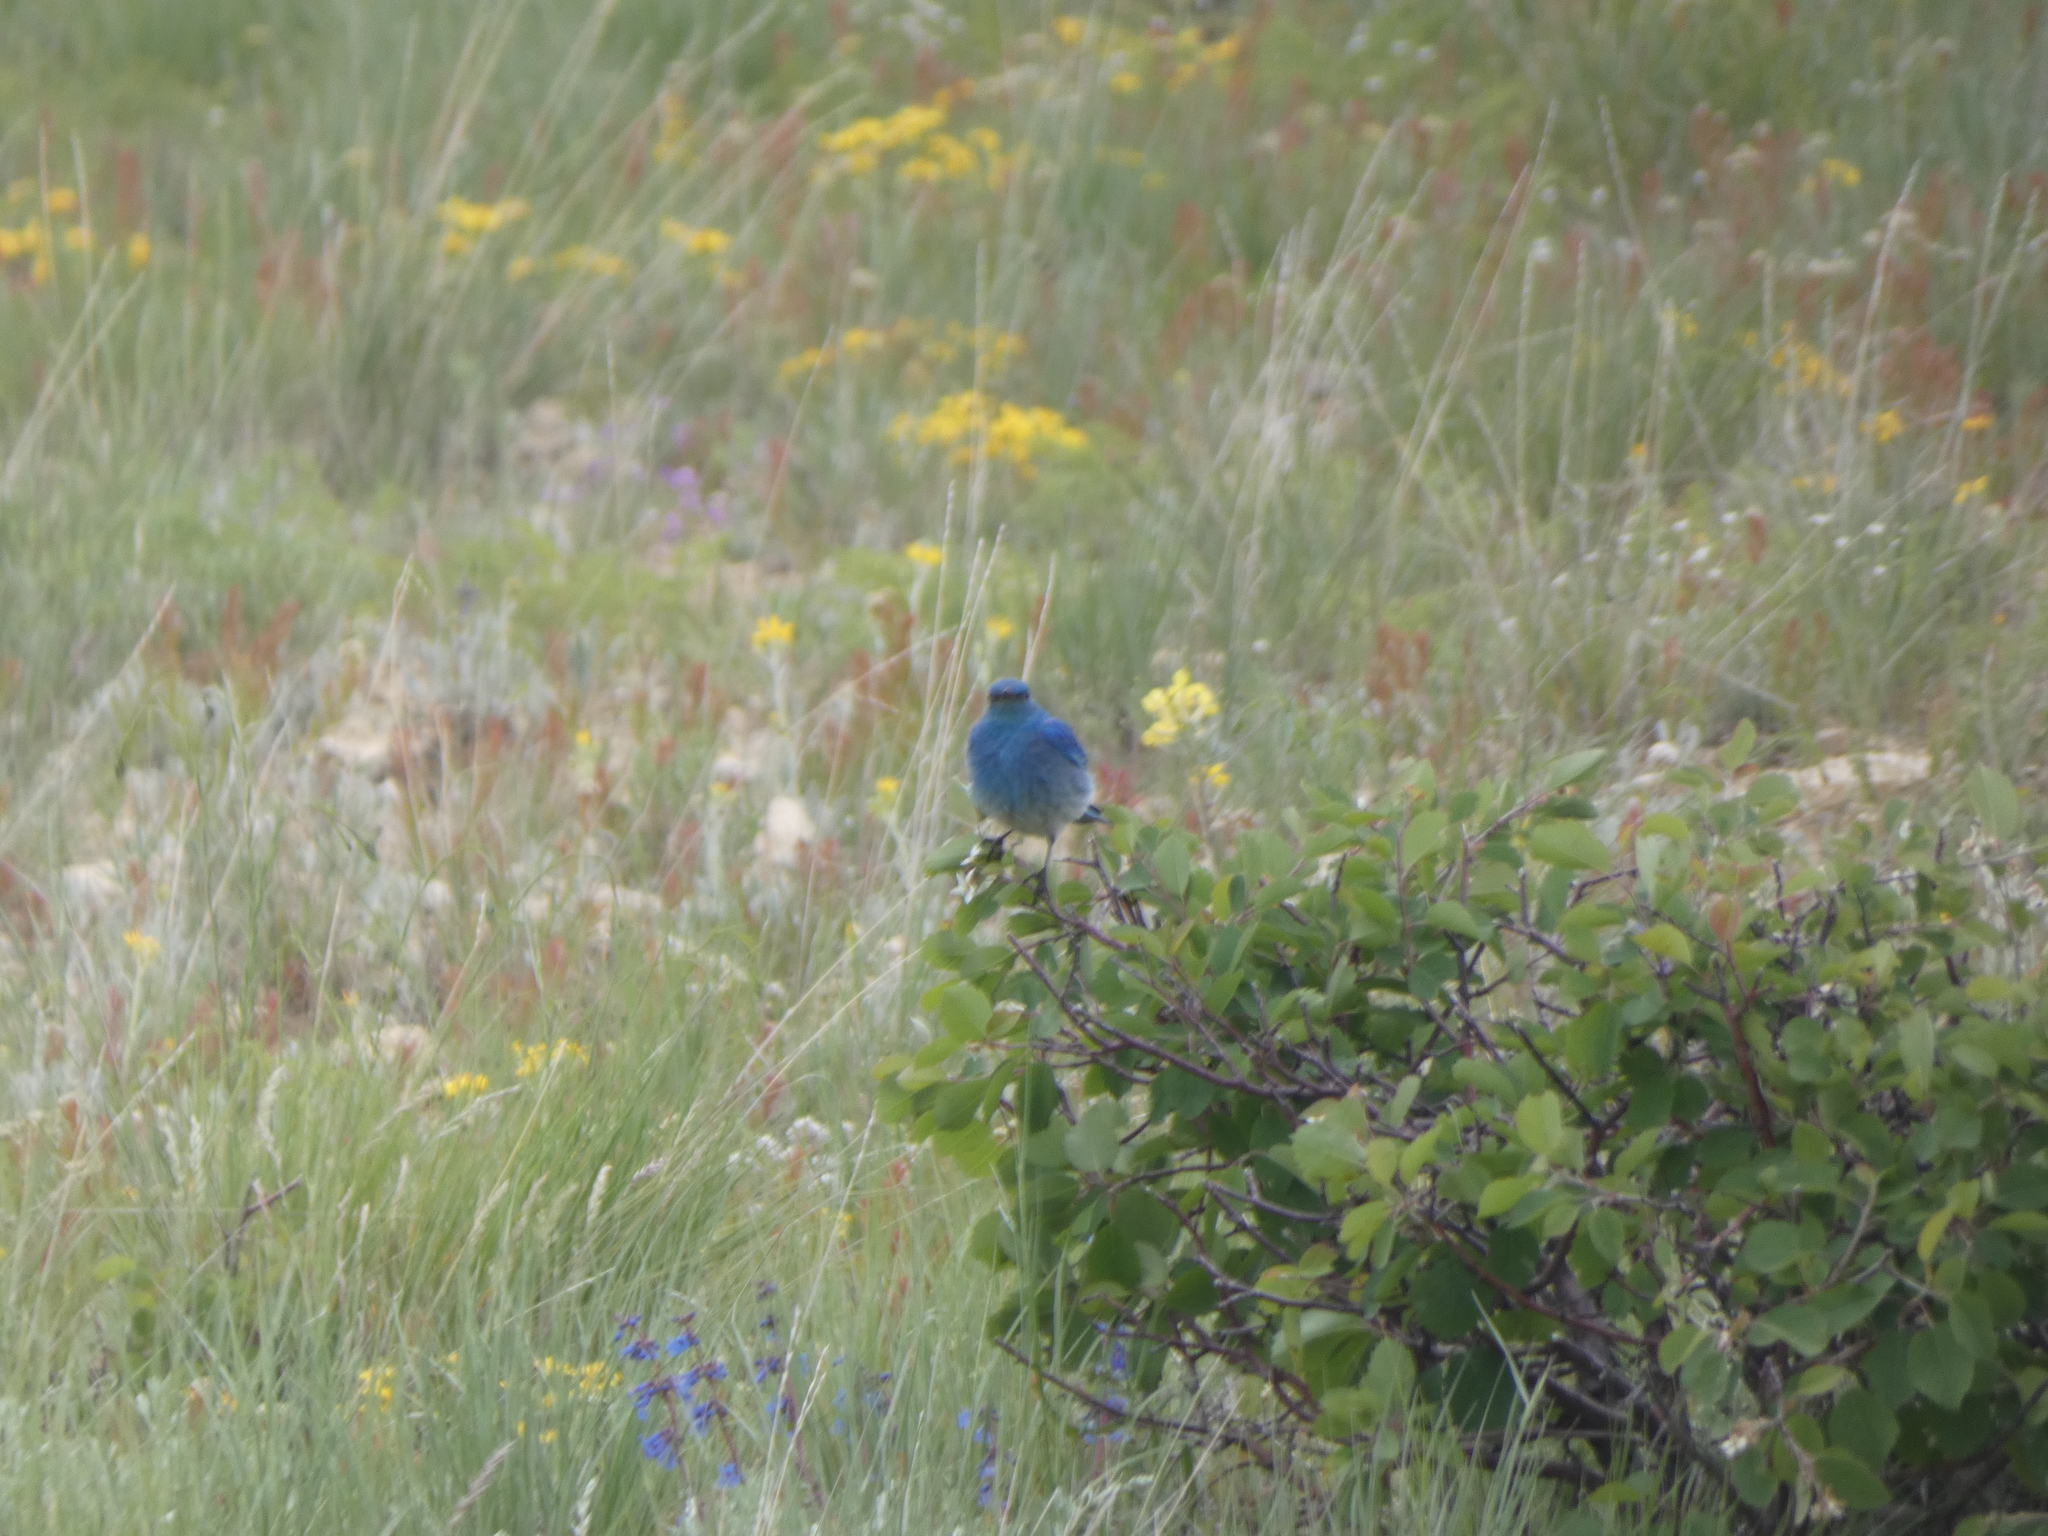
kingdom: Animalia
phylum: Chordata
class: Aves
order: Passeriformes
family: Turdidae
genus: Sialia
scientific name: Sialia currucoides
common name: Mountain bluebird
